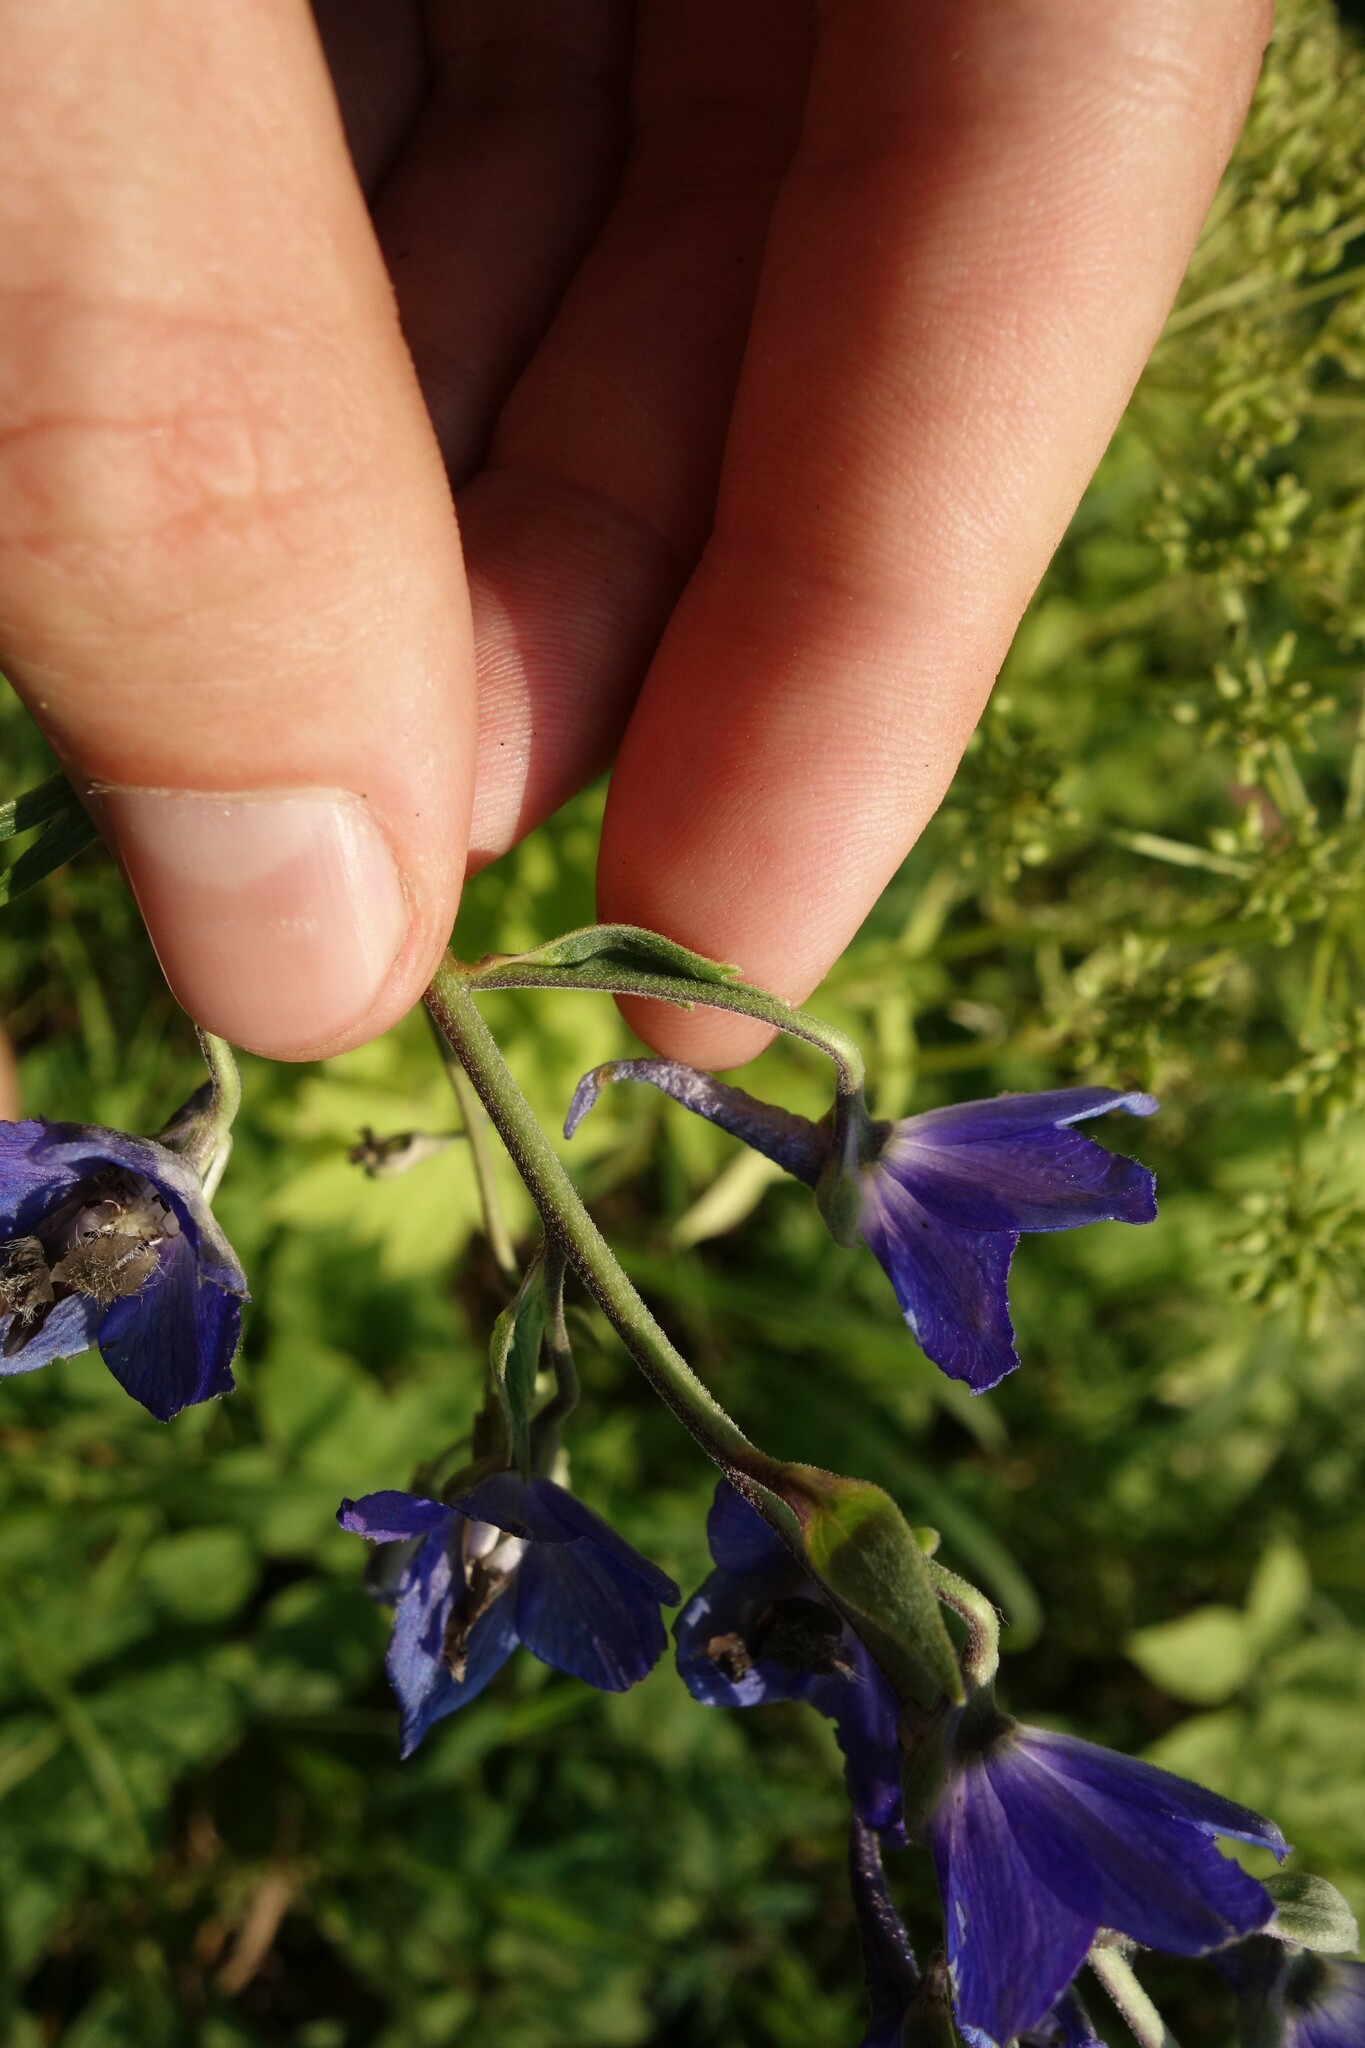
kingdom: Plantae
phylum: Tracheophyta
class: Magnoliopsida
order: Ranunculales
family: Ranunculaceae
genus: Delphinium
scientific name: Delphinium cuneatum
